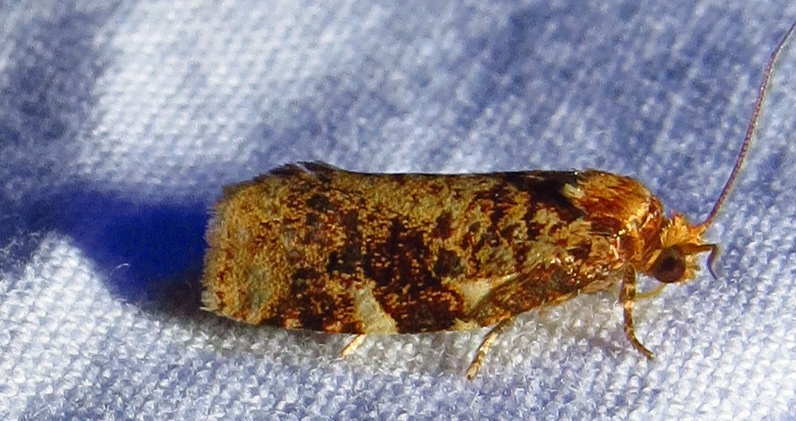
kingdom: Animalia
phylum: Arthropoda
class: Insecta
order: Lepidoptera
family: Tortricidae
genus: Archips
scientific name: Archips argyrospila
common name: Fruit-tree leafroller moth
